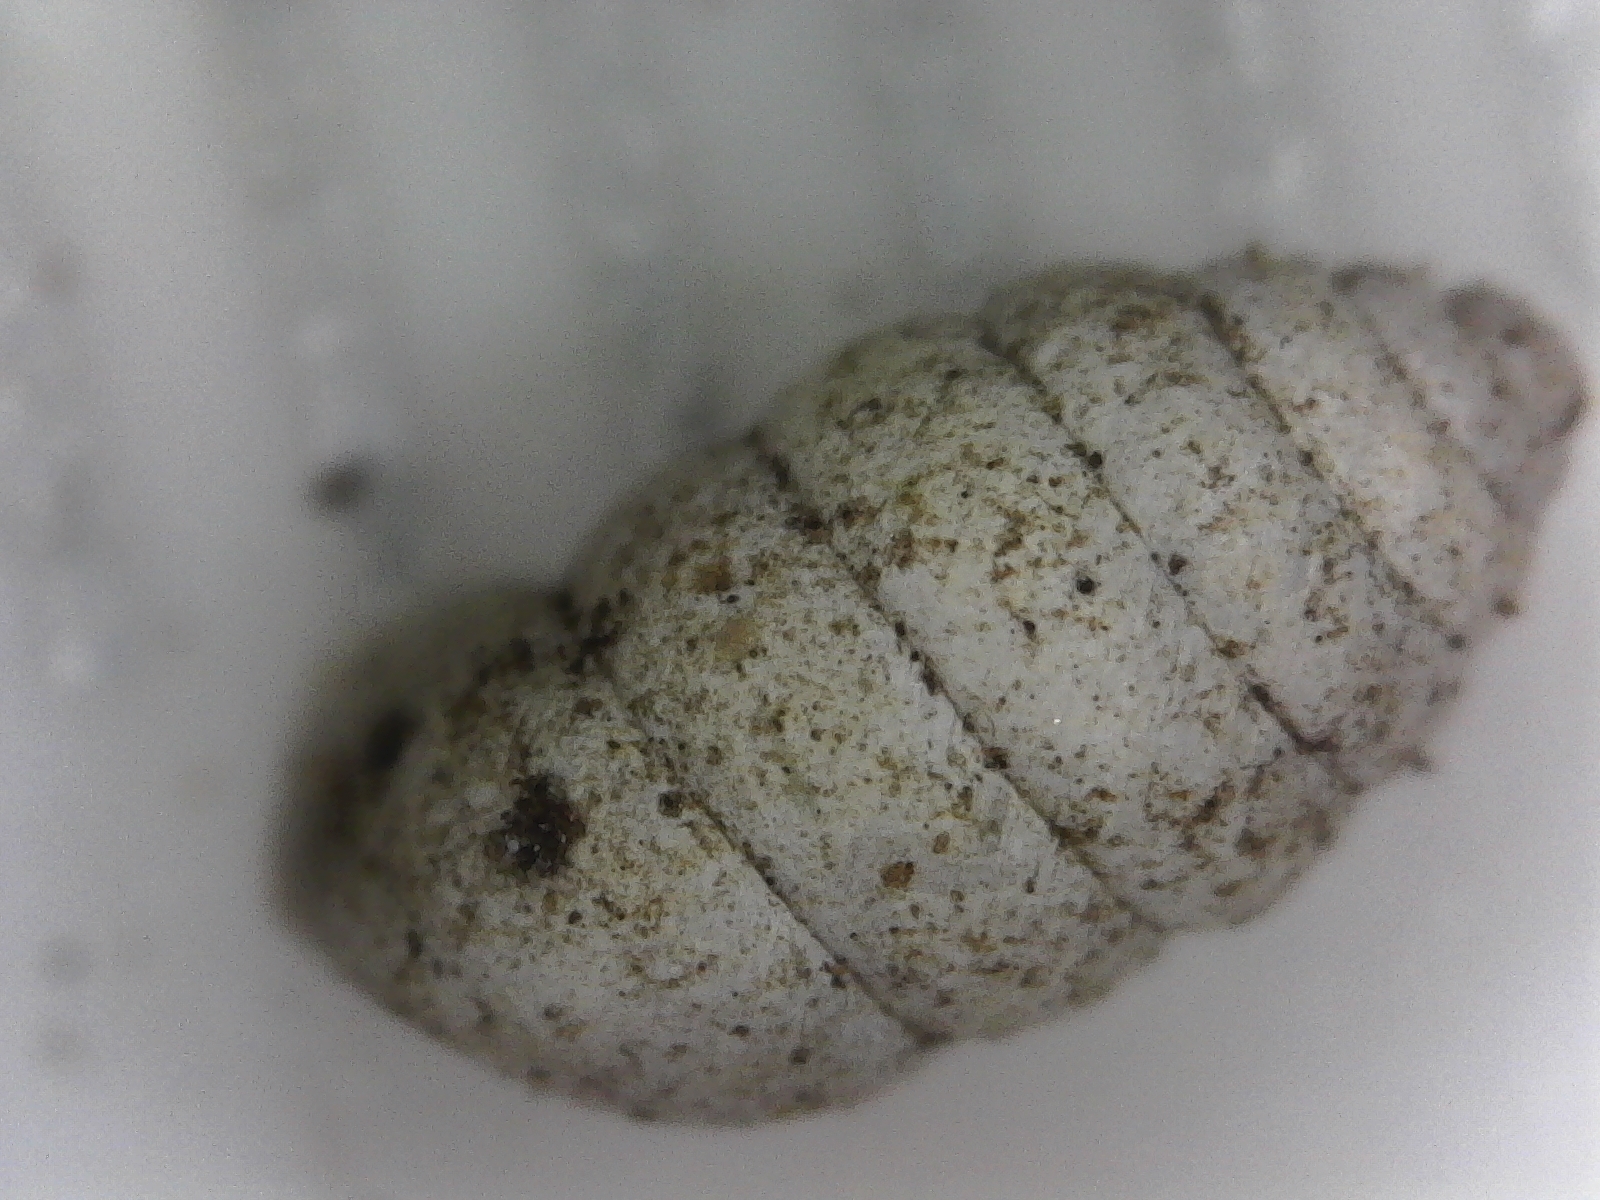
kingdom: Animalia
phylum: Mollusca
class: Gastropoda
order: Stylommatophora
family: Gastrocoptidae
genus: Gastrocopta
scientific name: Gastrocopta armifera
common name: Armed snaggletooth
